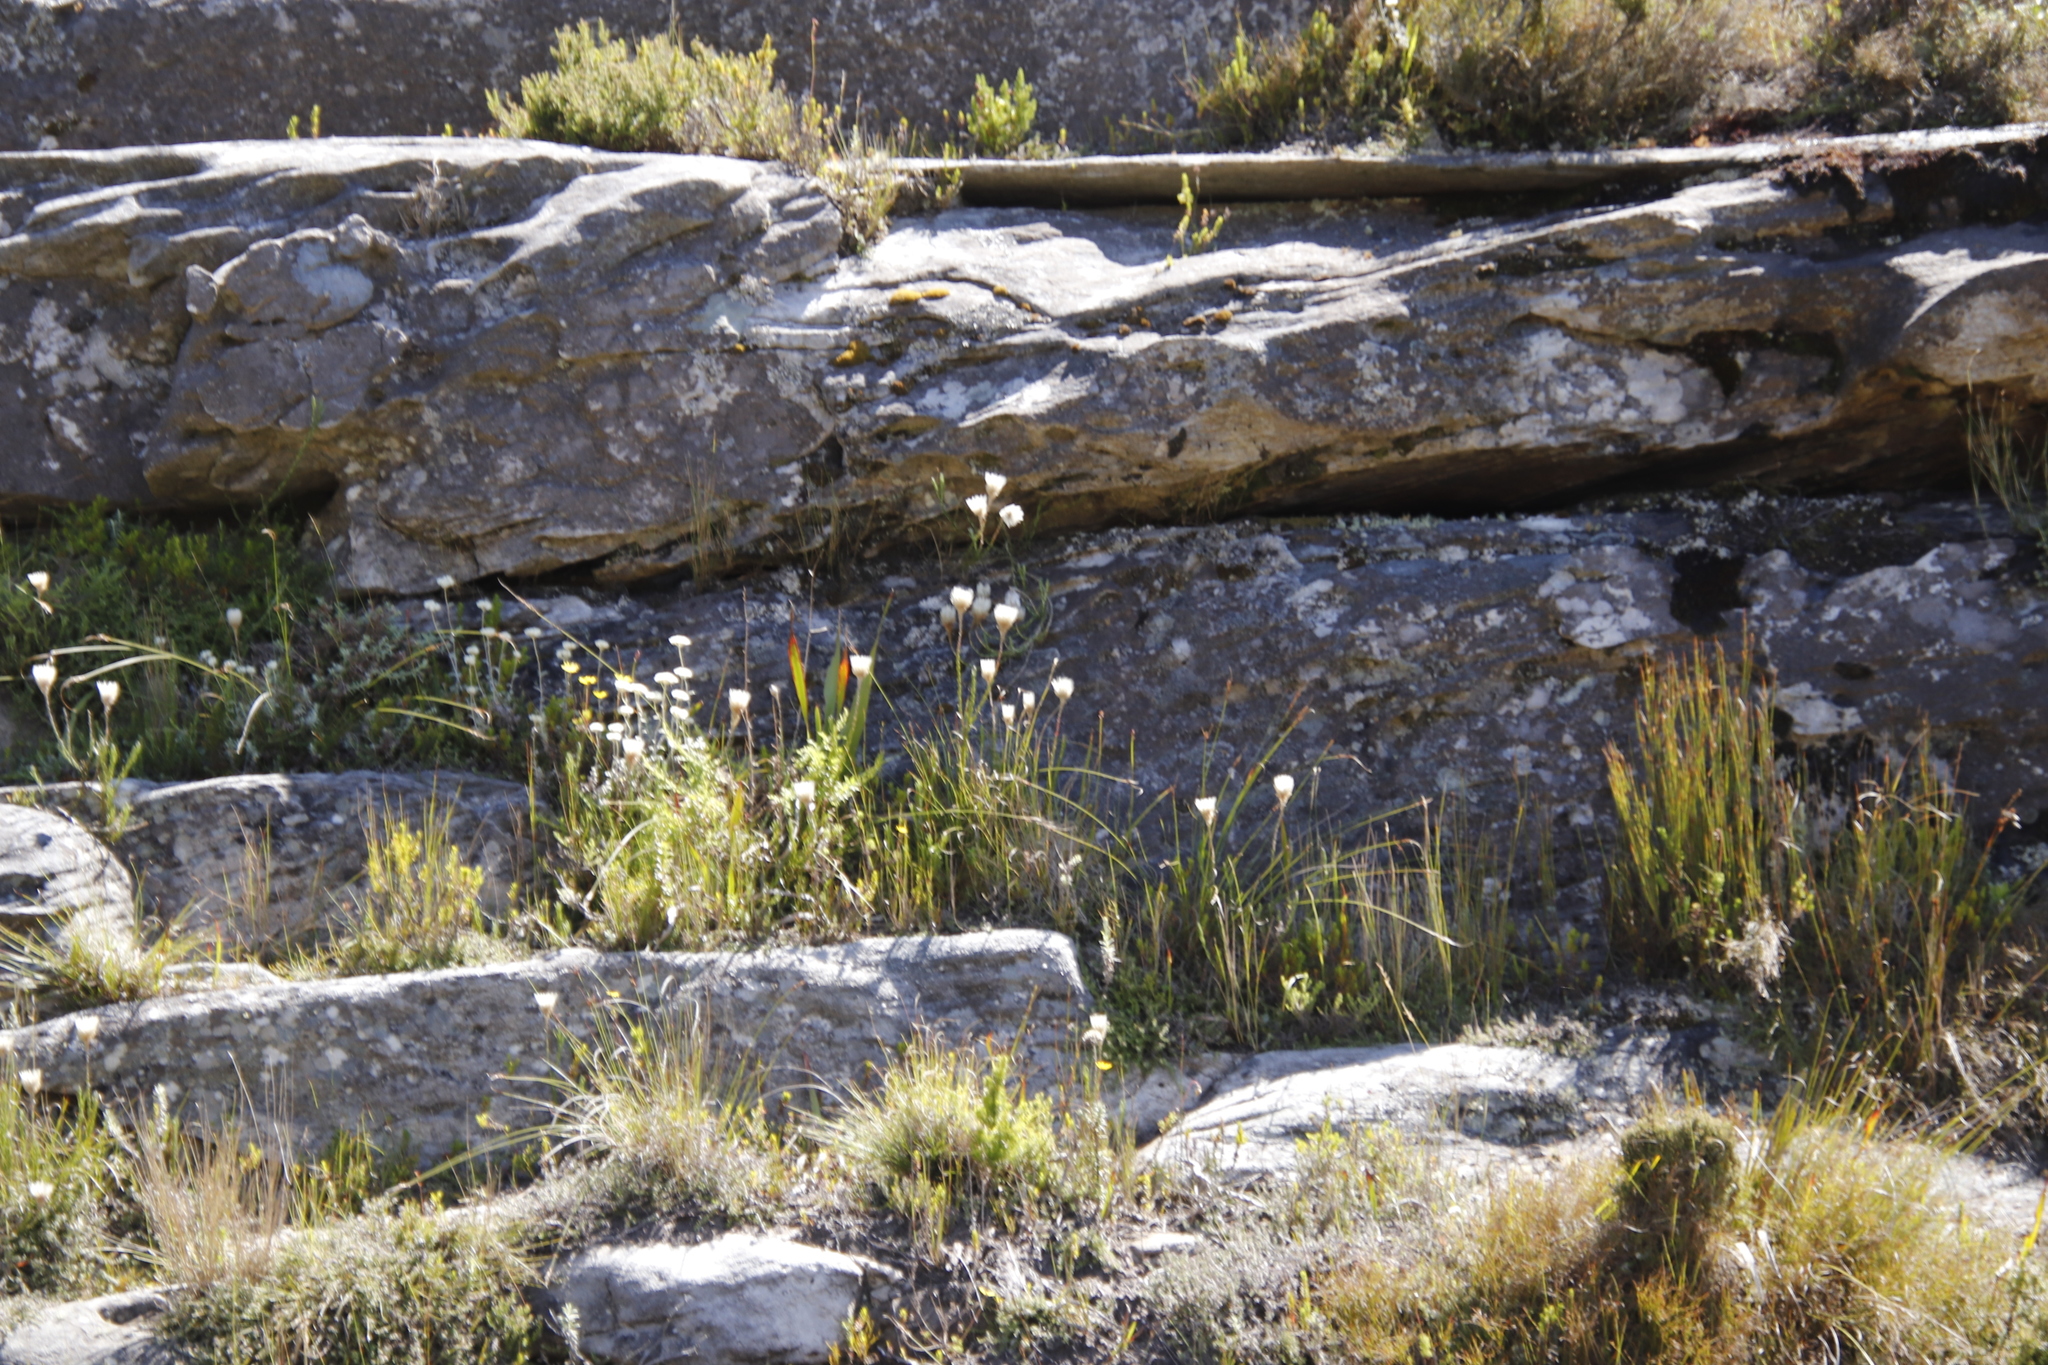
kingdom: Plantae
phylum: Tracheophyta
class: Magnoliopsida
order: Asterales
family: Asteraceae
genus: Edmondia
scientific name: Edmondia pinifolia
